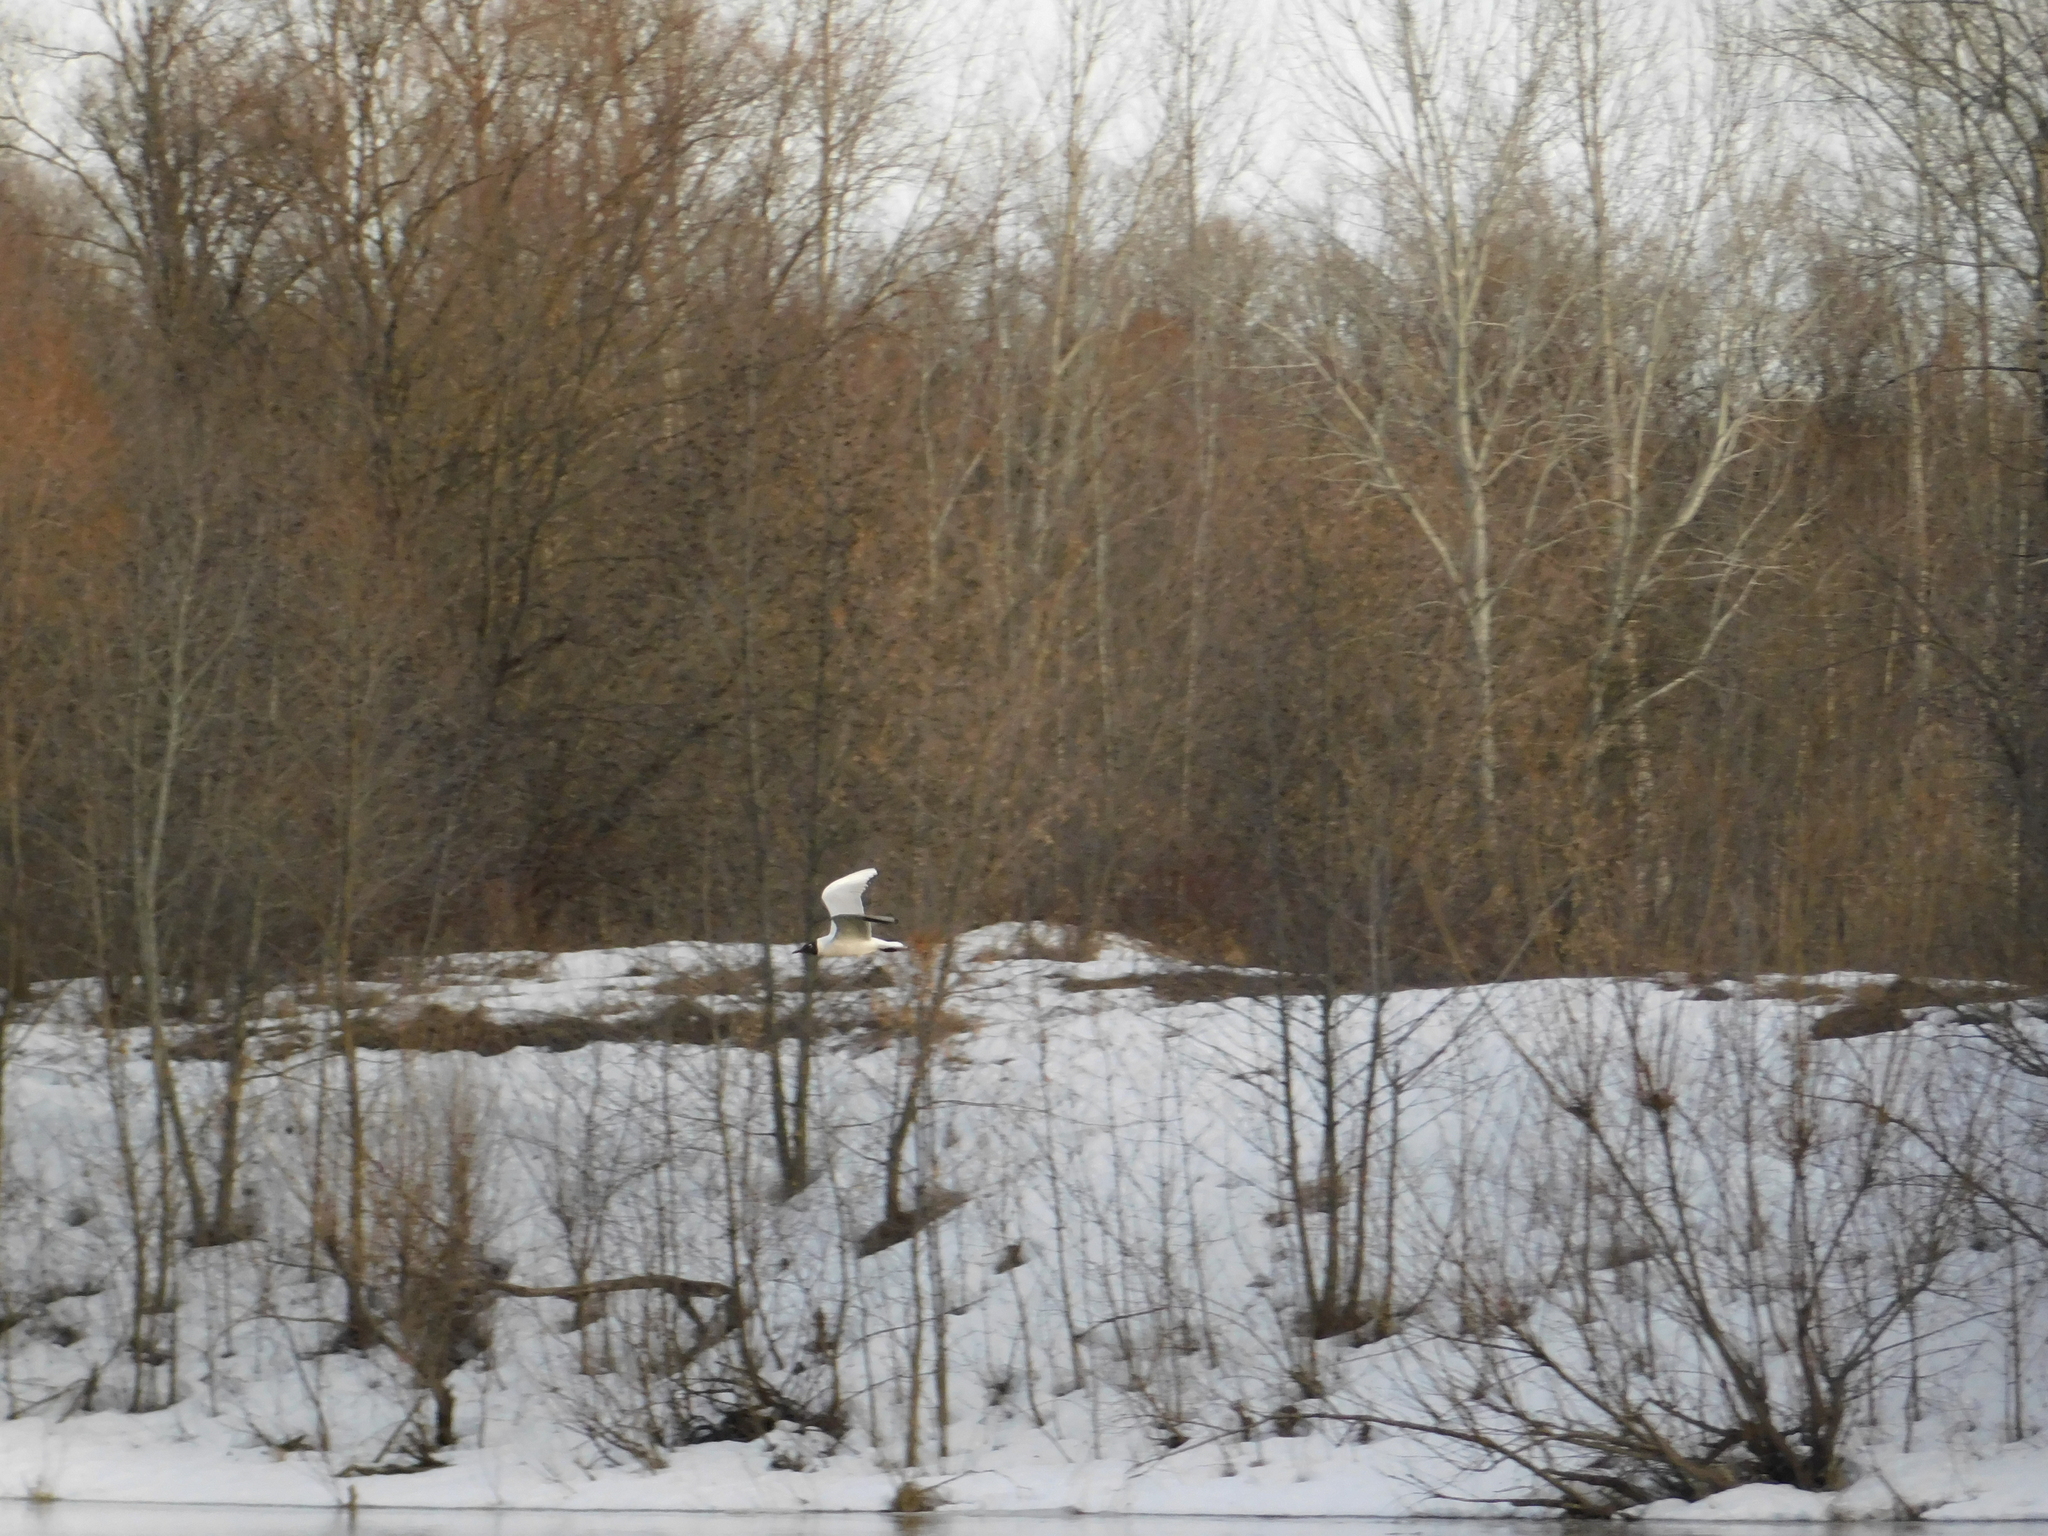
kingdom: Animalia
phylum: Chordata
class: Aves
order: Charadriiformes
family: Laridae
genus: Chroicocephalus
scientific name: Chroicocephalus ridibundus
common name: Black-headed gull
